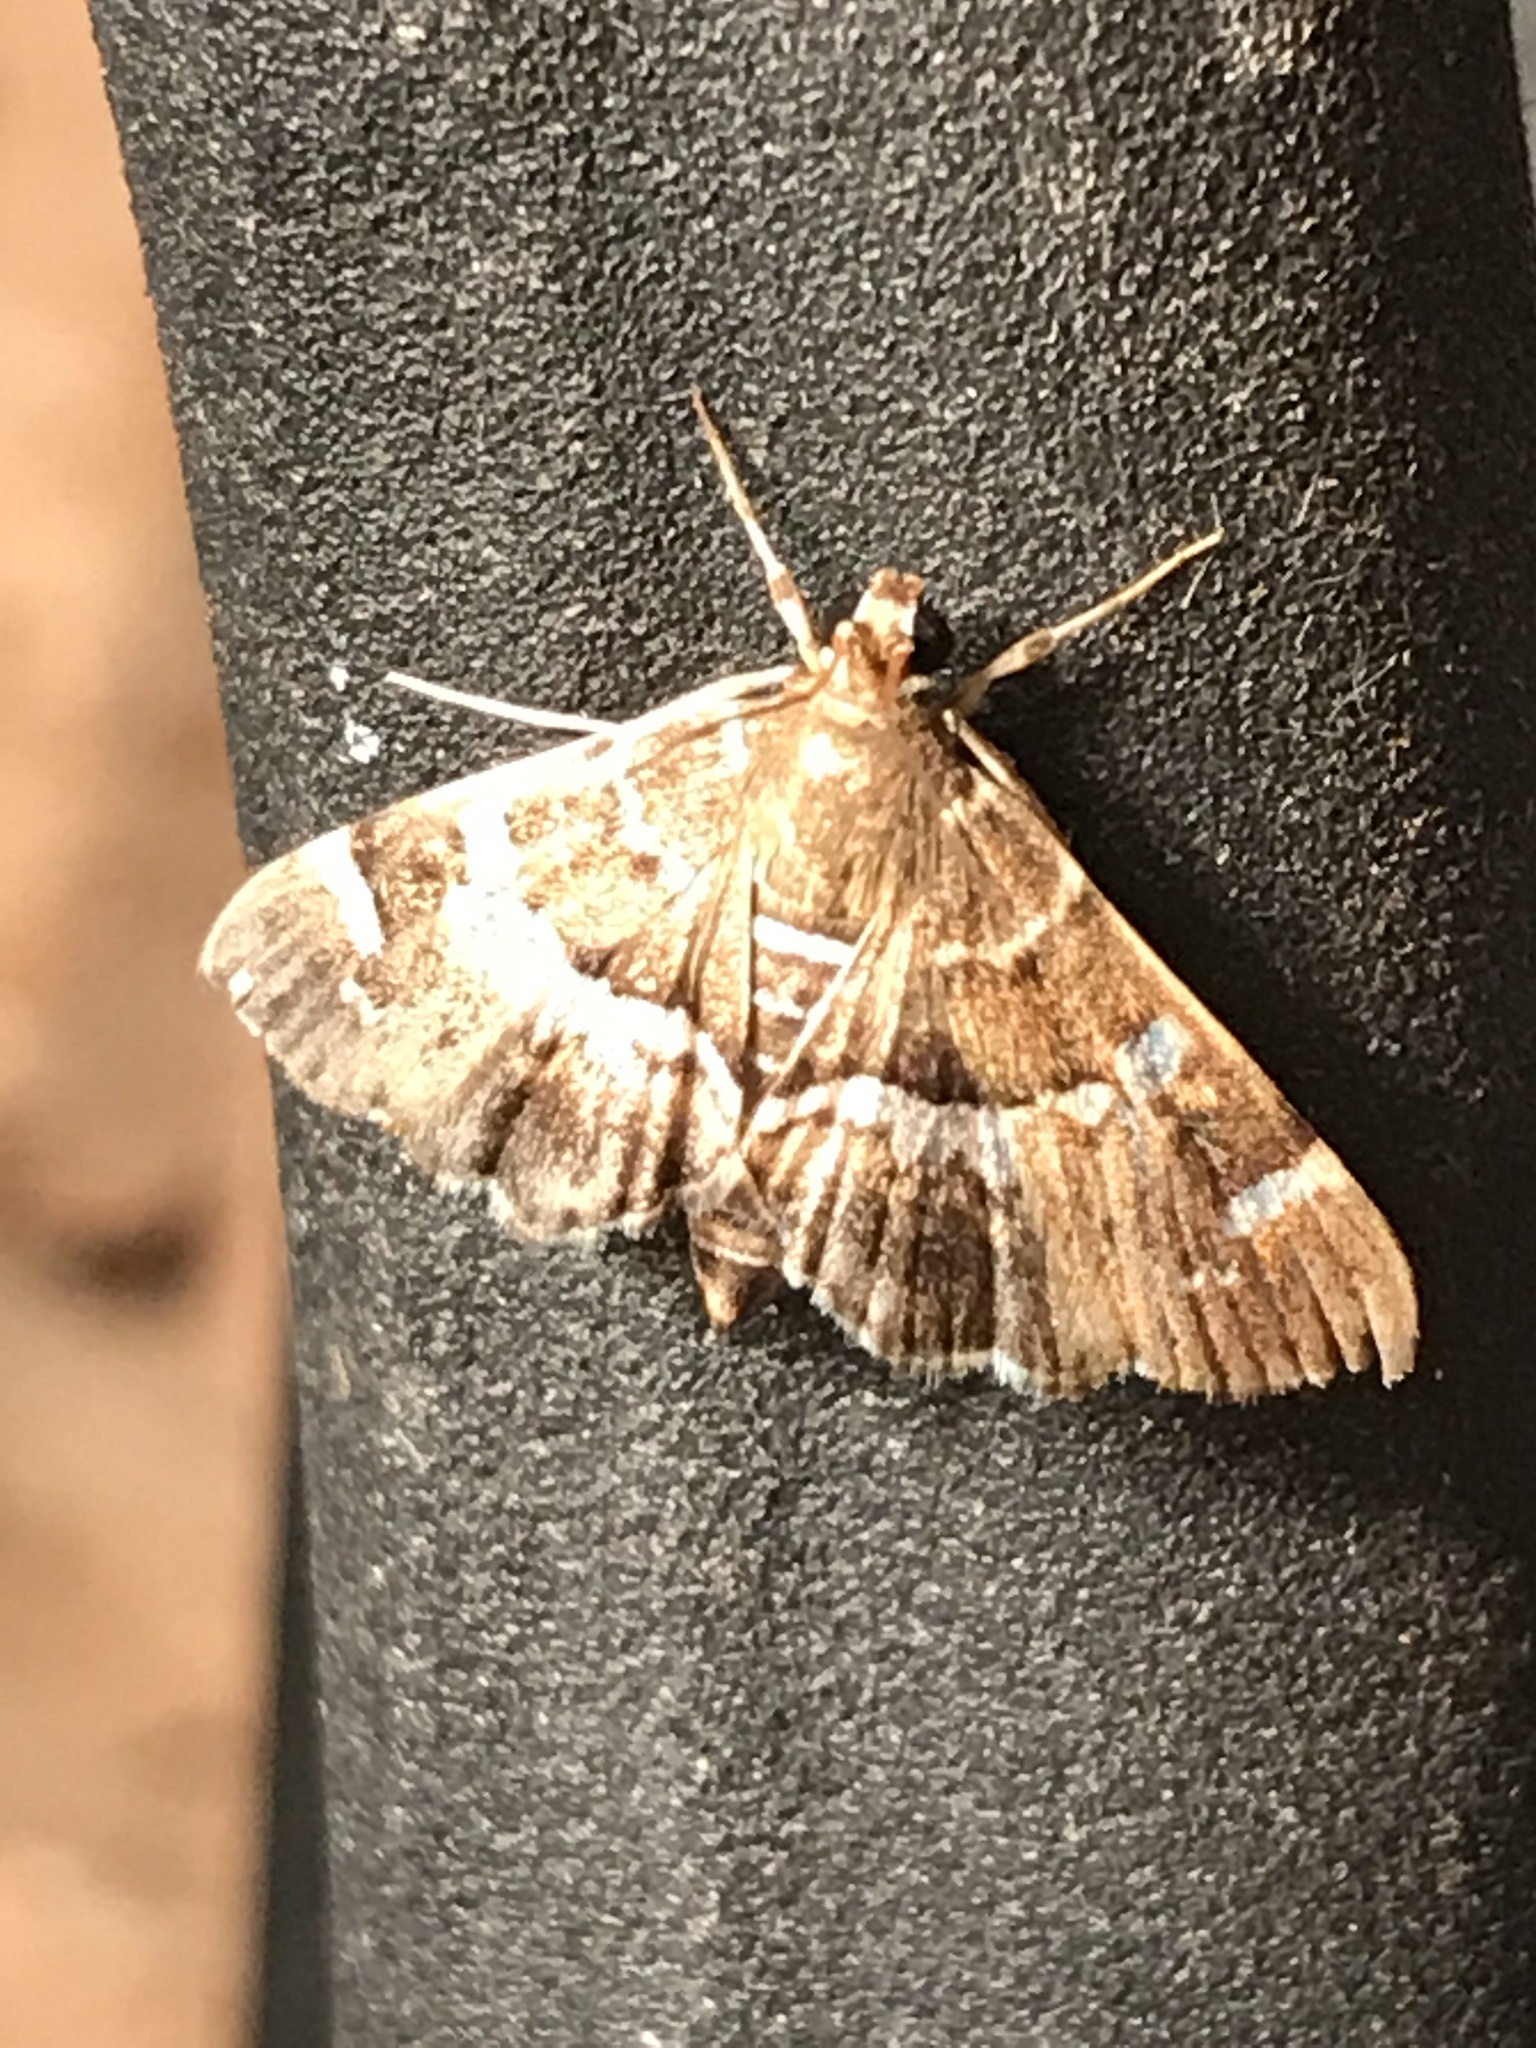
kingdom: Animalia
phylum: Arthropoda
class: Insecta
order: Lepidoptera
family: Crambidae
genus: Hymenia
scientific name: Hymenia perspectalis
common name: Spotted beet webworm
